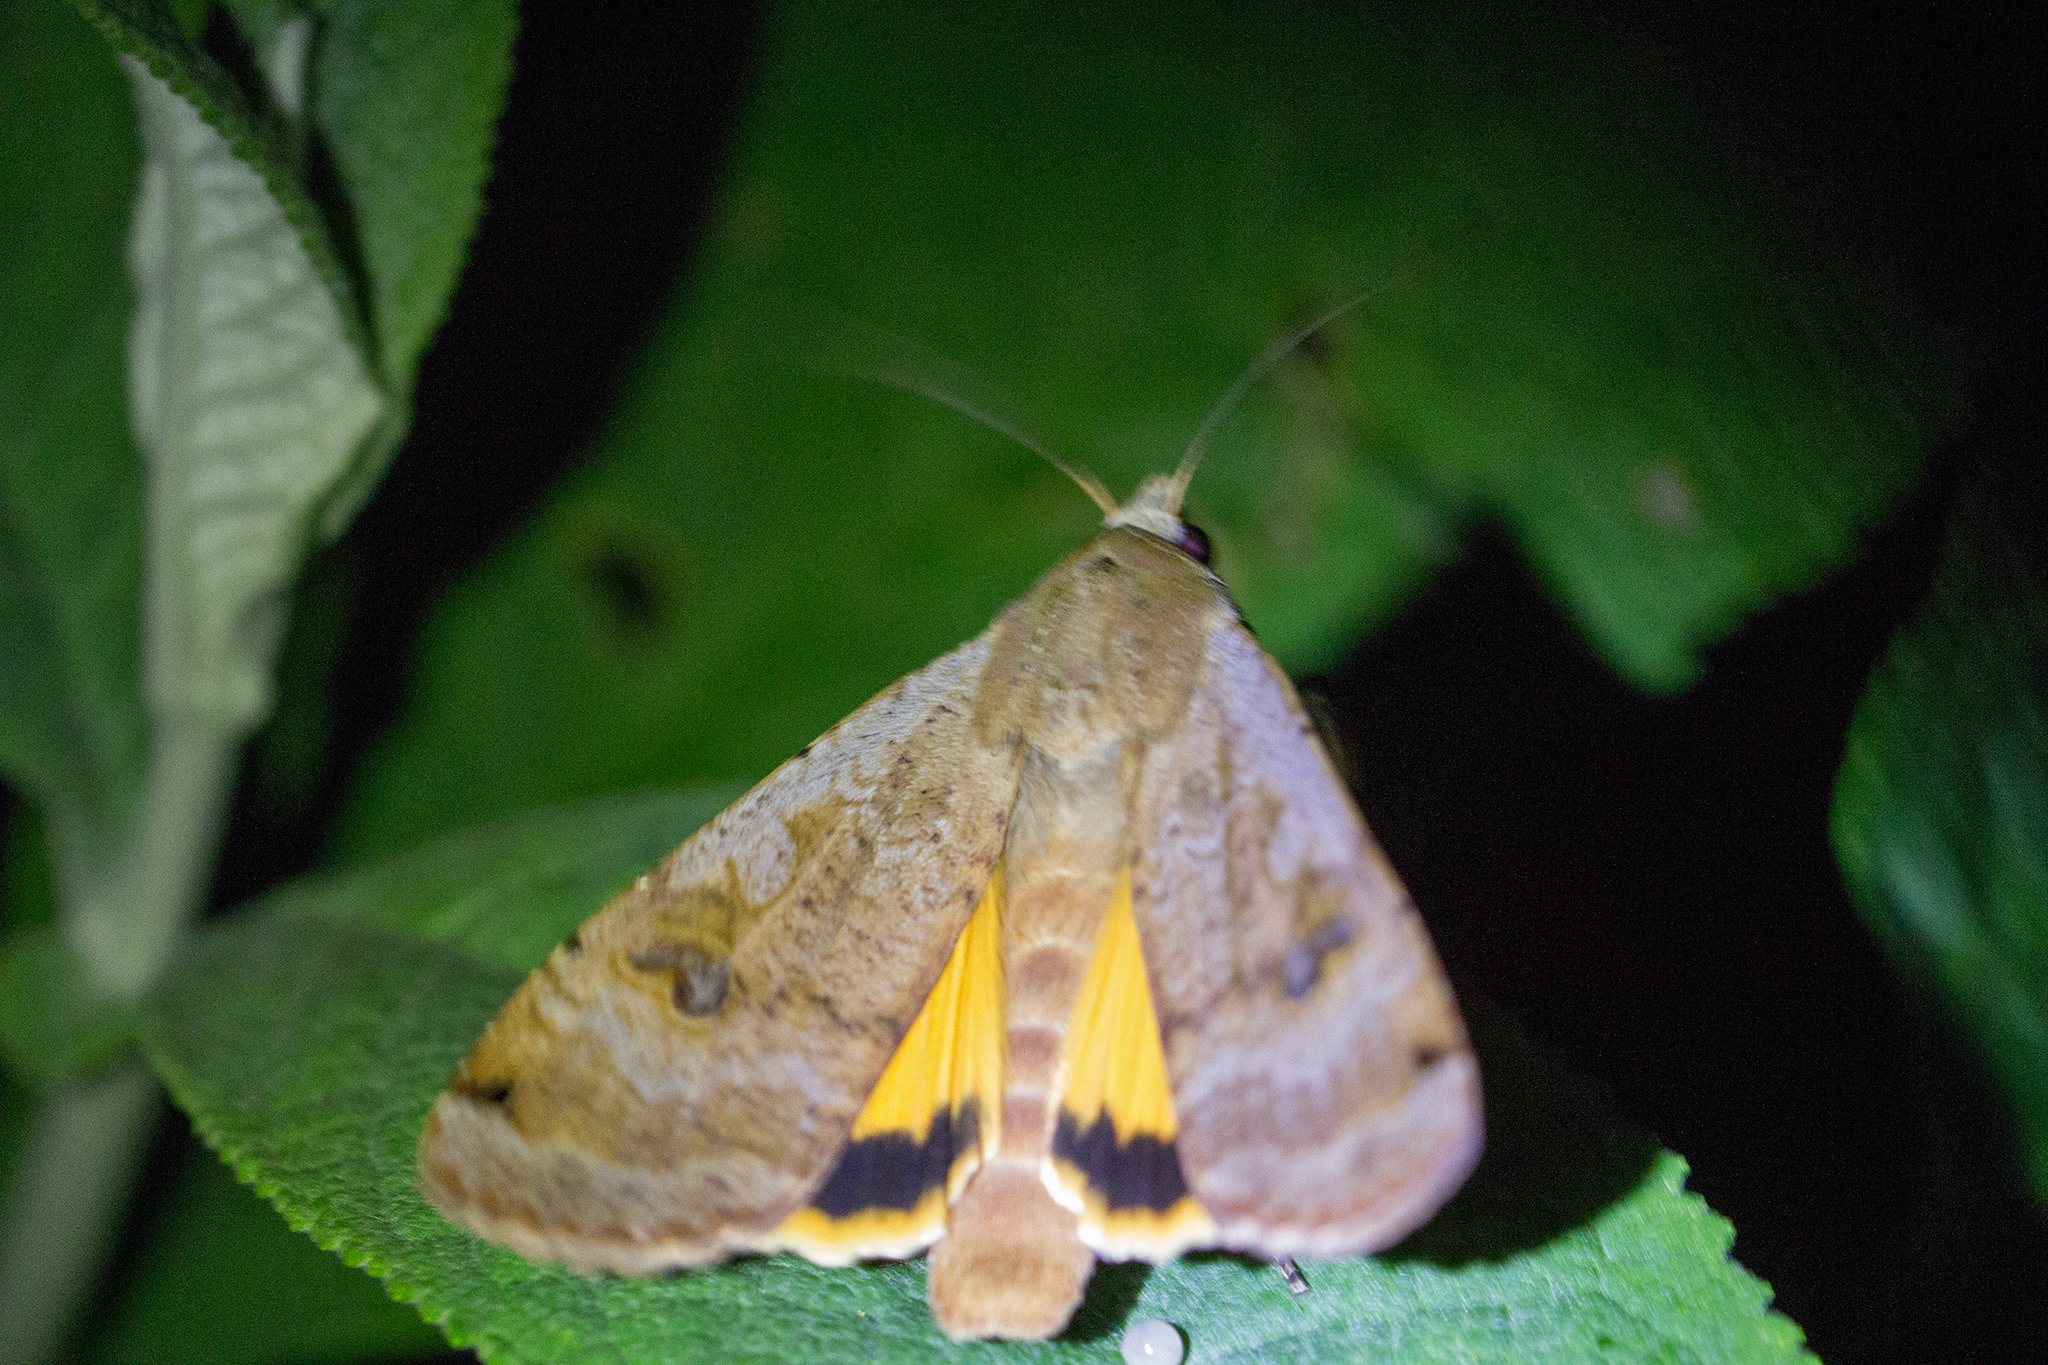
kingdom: Animalia
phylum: Arthropoda
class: Insecta
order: Lepidoptera
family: Noctuidae
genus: Noctua
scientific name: Noctua pronuba
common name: Large yellow underwing
